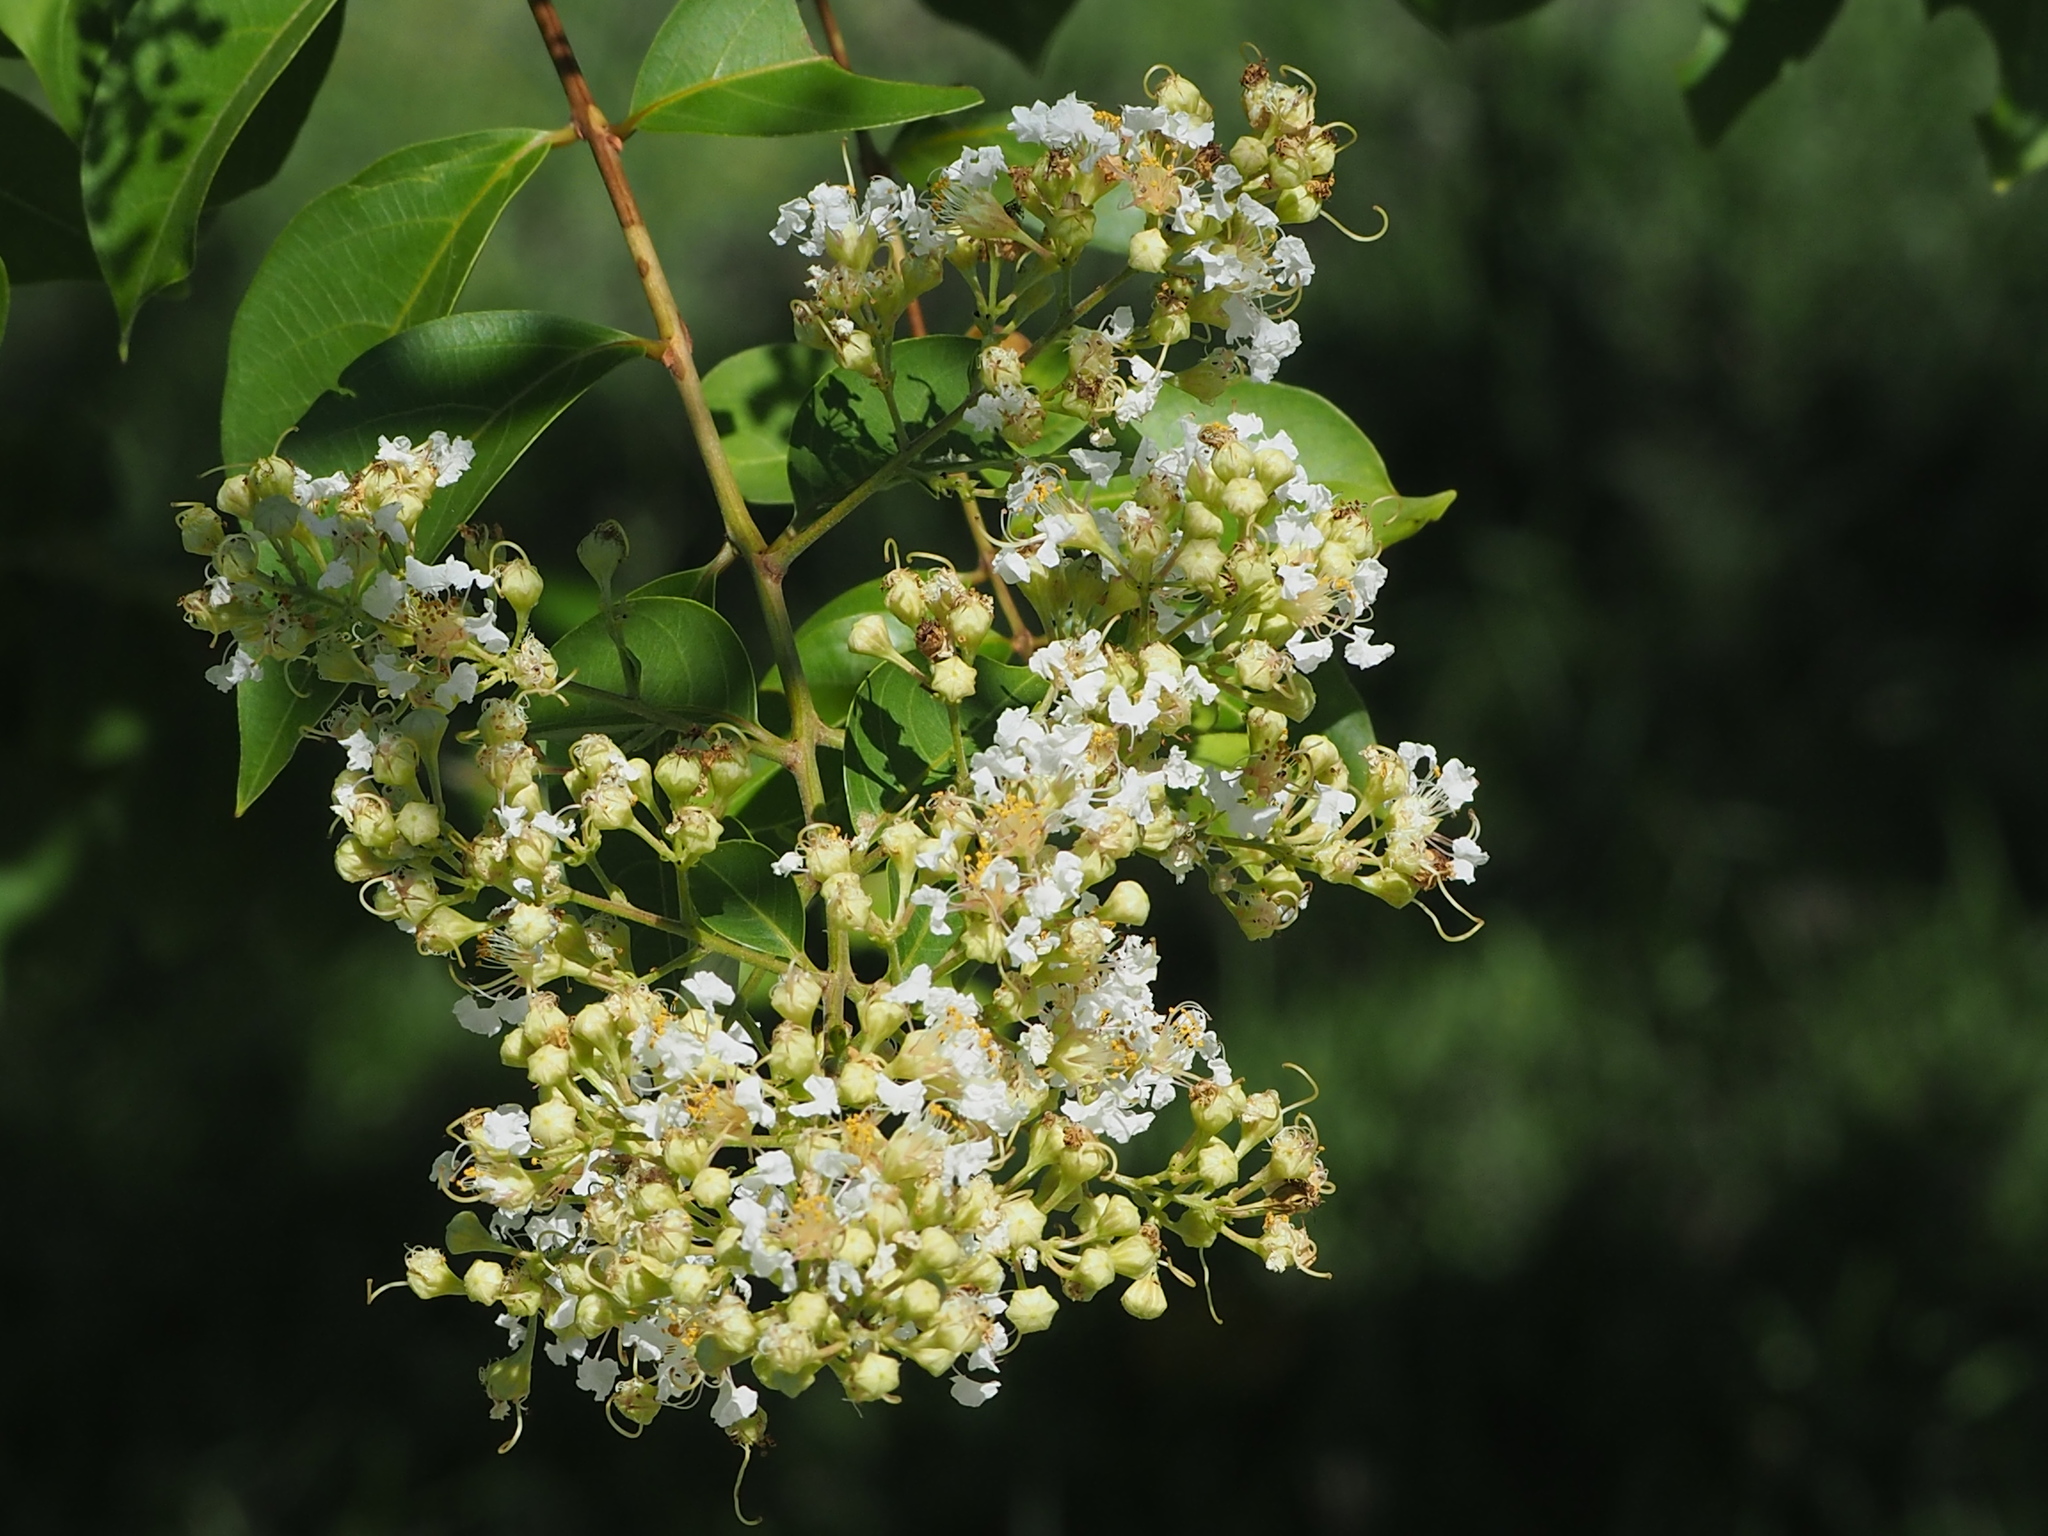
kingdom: Plantae
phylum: Tracheophyta
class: Magnoliopsida
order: Myrtales
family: Lythraceae
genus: Lagerstroemia
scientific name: Lagerstroemia subcostata
